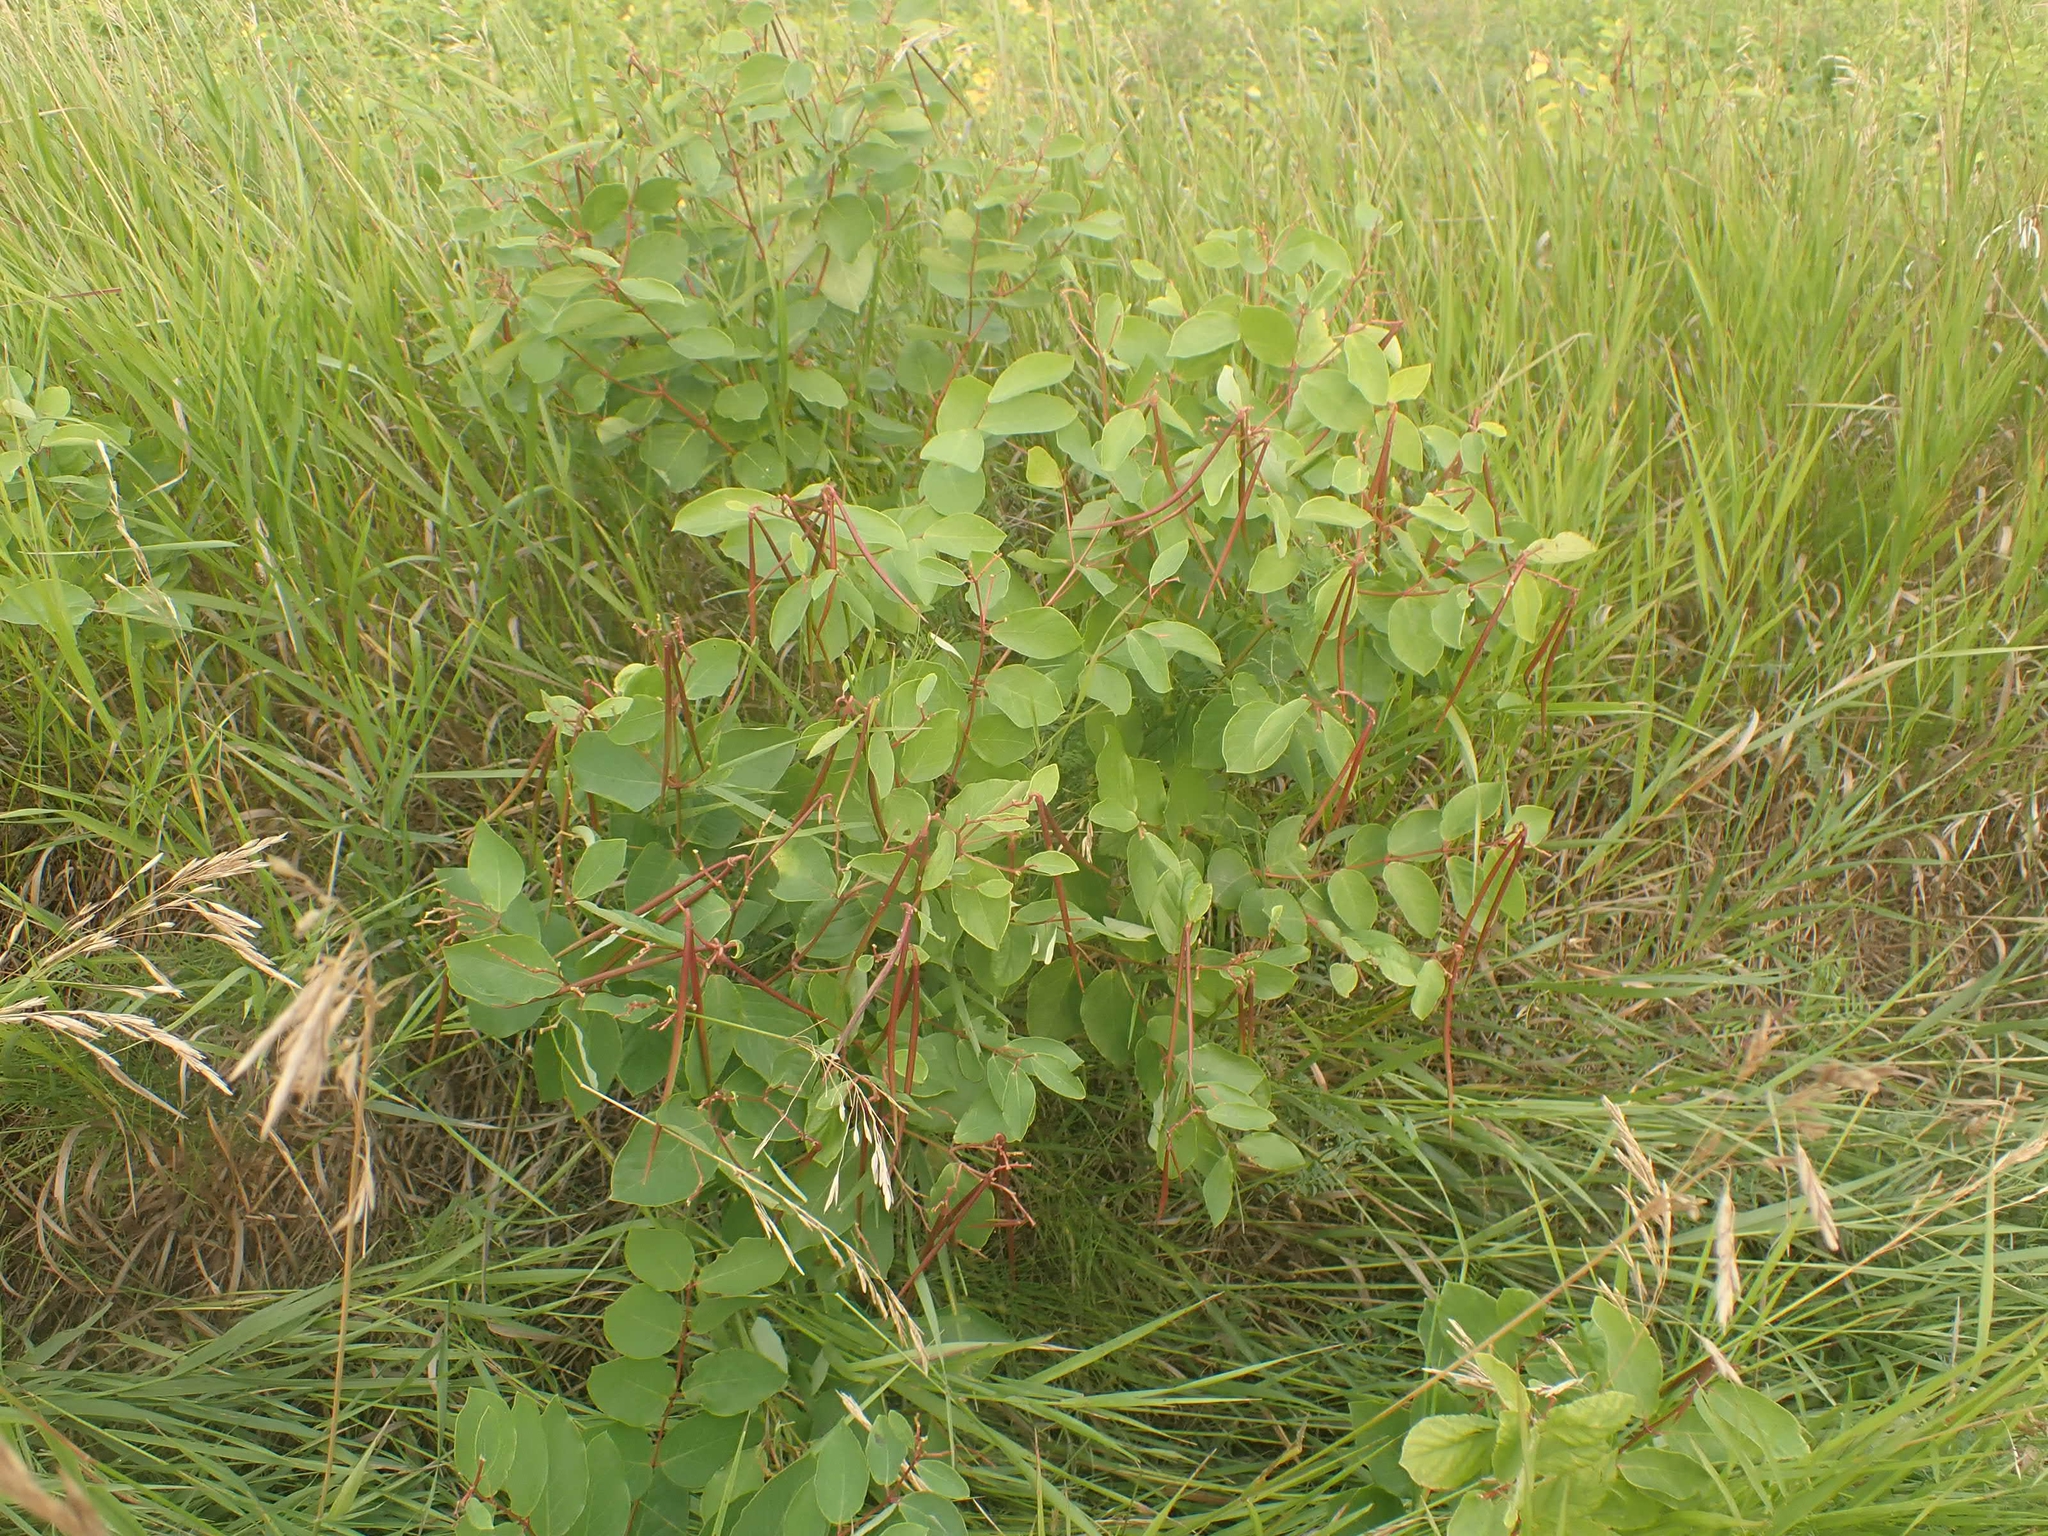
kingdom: Plantae
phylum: Tracheophyta
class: Magnoliopsida
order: Gentianales
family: Apocynaceae
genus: Apocynum
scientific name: Apocynum androsaemifolium
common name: Spreading dogbane
